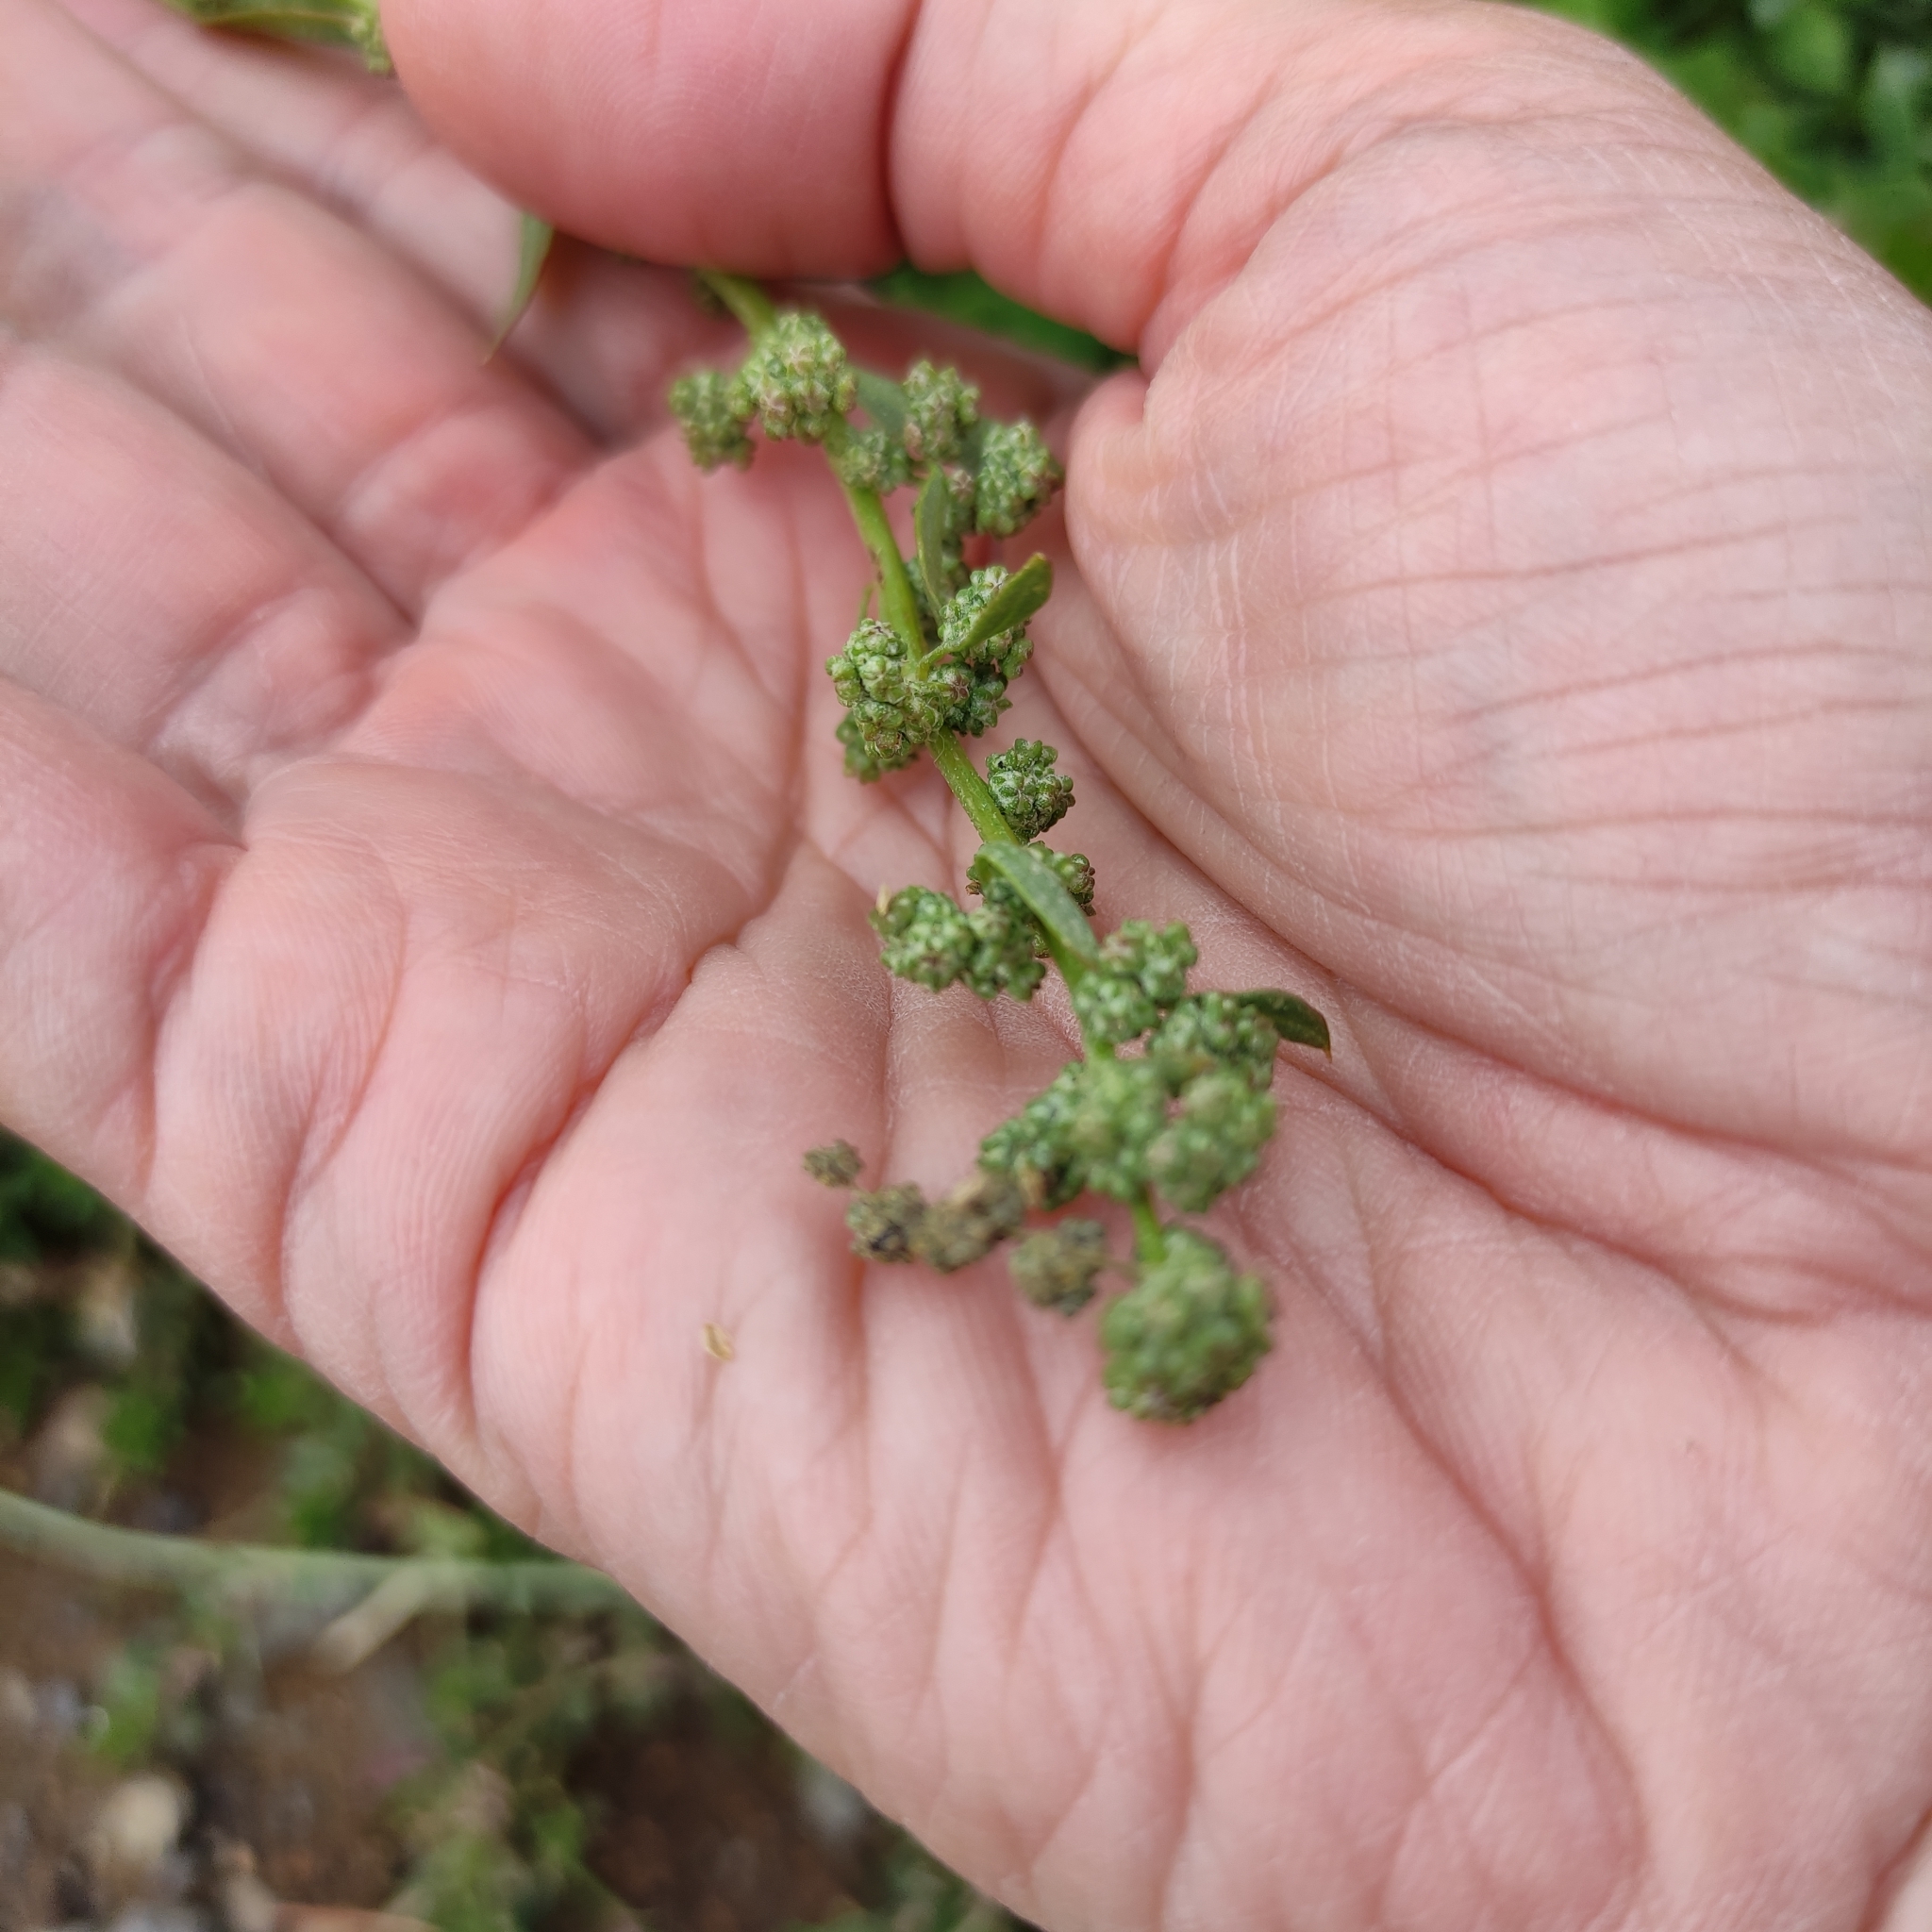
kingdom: Plantae
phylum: Tracheophyta
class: Magnoliopsida
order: Caryophyllales
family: Amaranthaceae
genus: Chenopodium
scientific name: Chenopodium album
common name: Fat-hen
